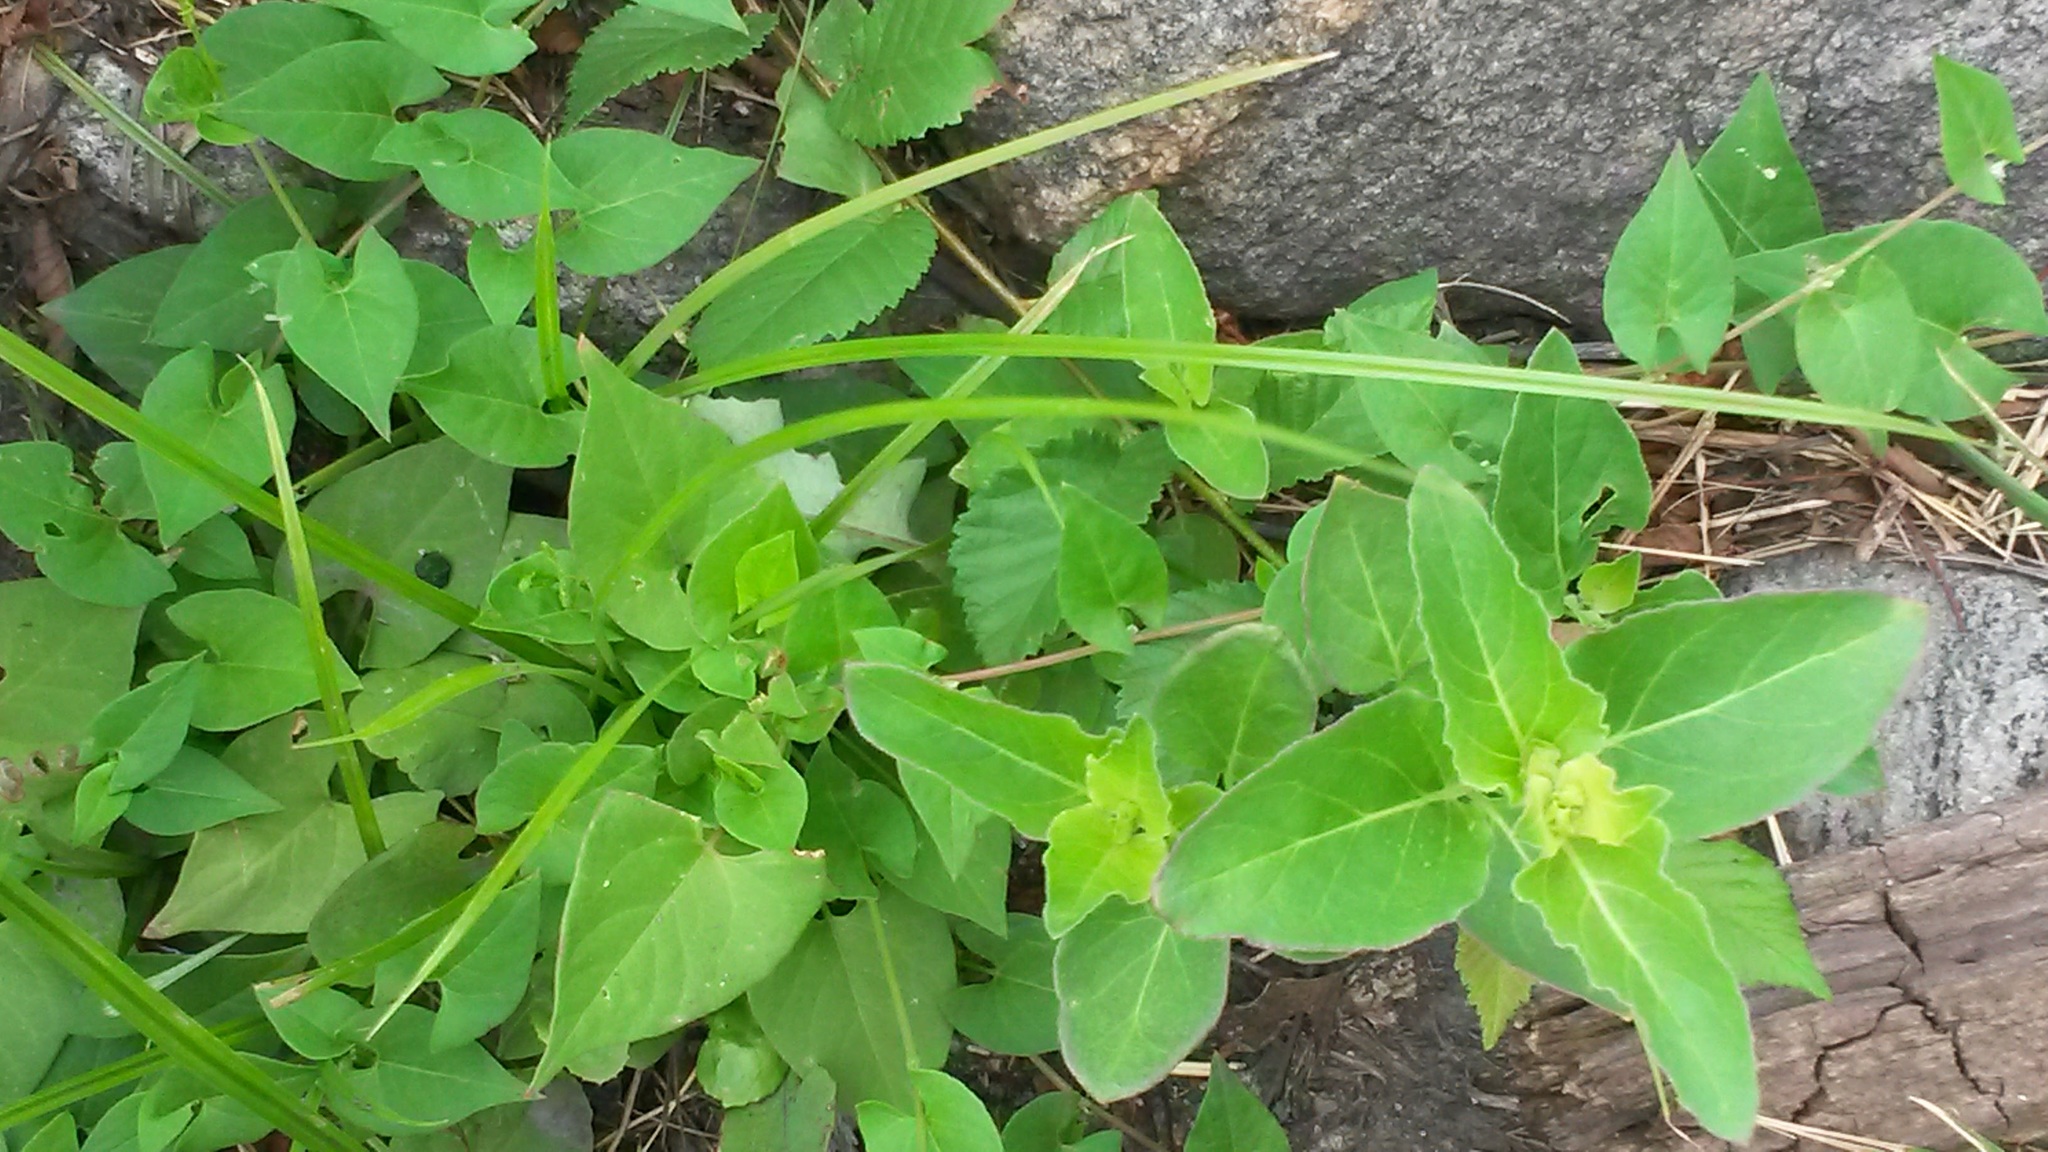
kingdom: Plantae
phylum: Tracheophyta
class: Magnoliopsida
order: Caryophyllales
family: Nyctaginaceae
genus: Mirabilis
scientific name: Mirabilis nyctaginea
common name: Umbrella wort
